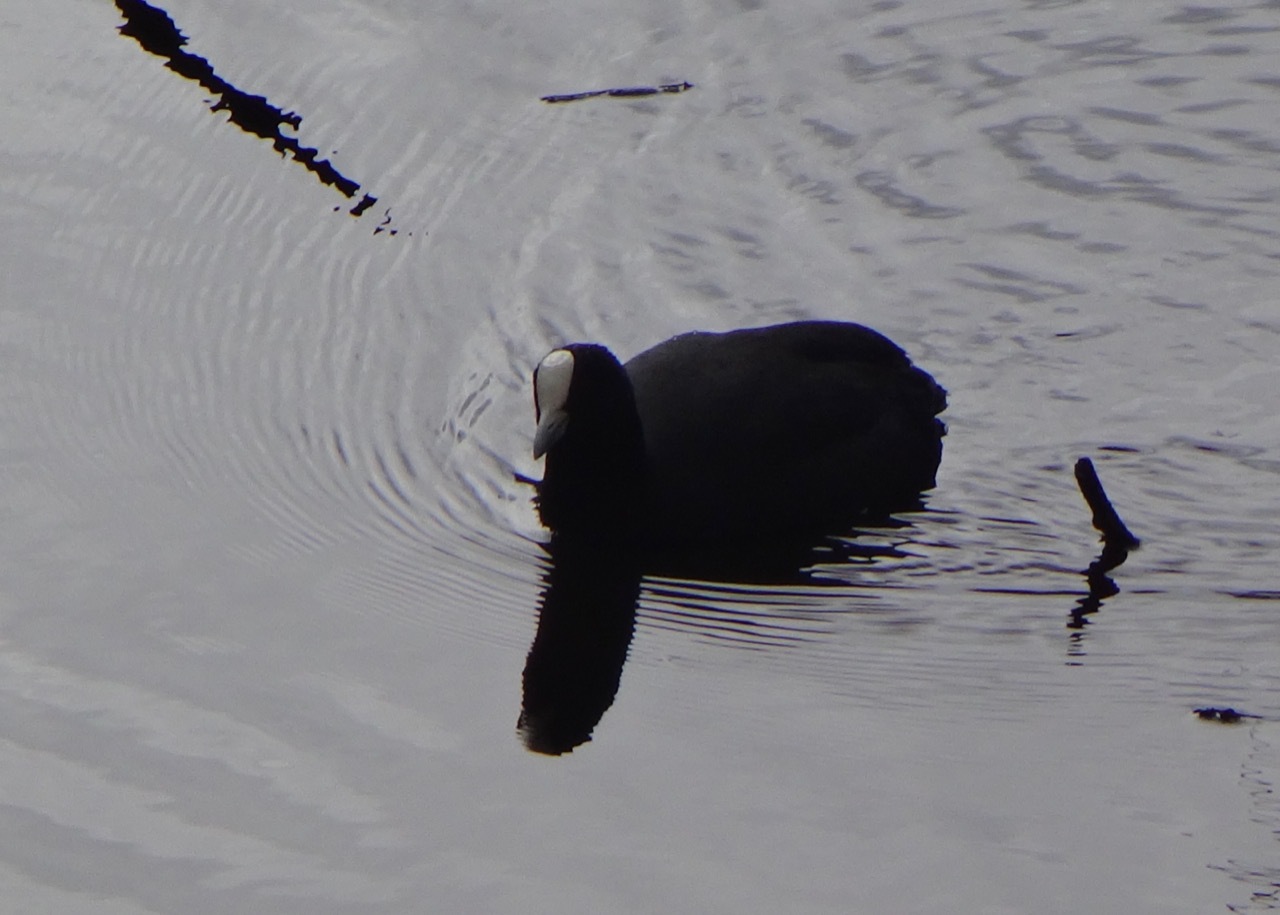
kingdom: Animalia
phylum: Chordata
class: Aves
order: Gruiformes
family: Rallidae
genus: Fulica
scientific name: Fulica atra
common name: Eurasian coot
